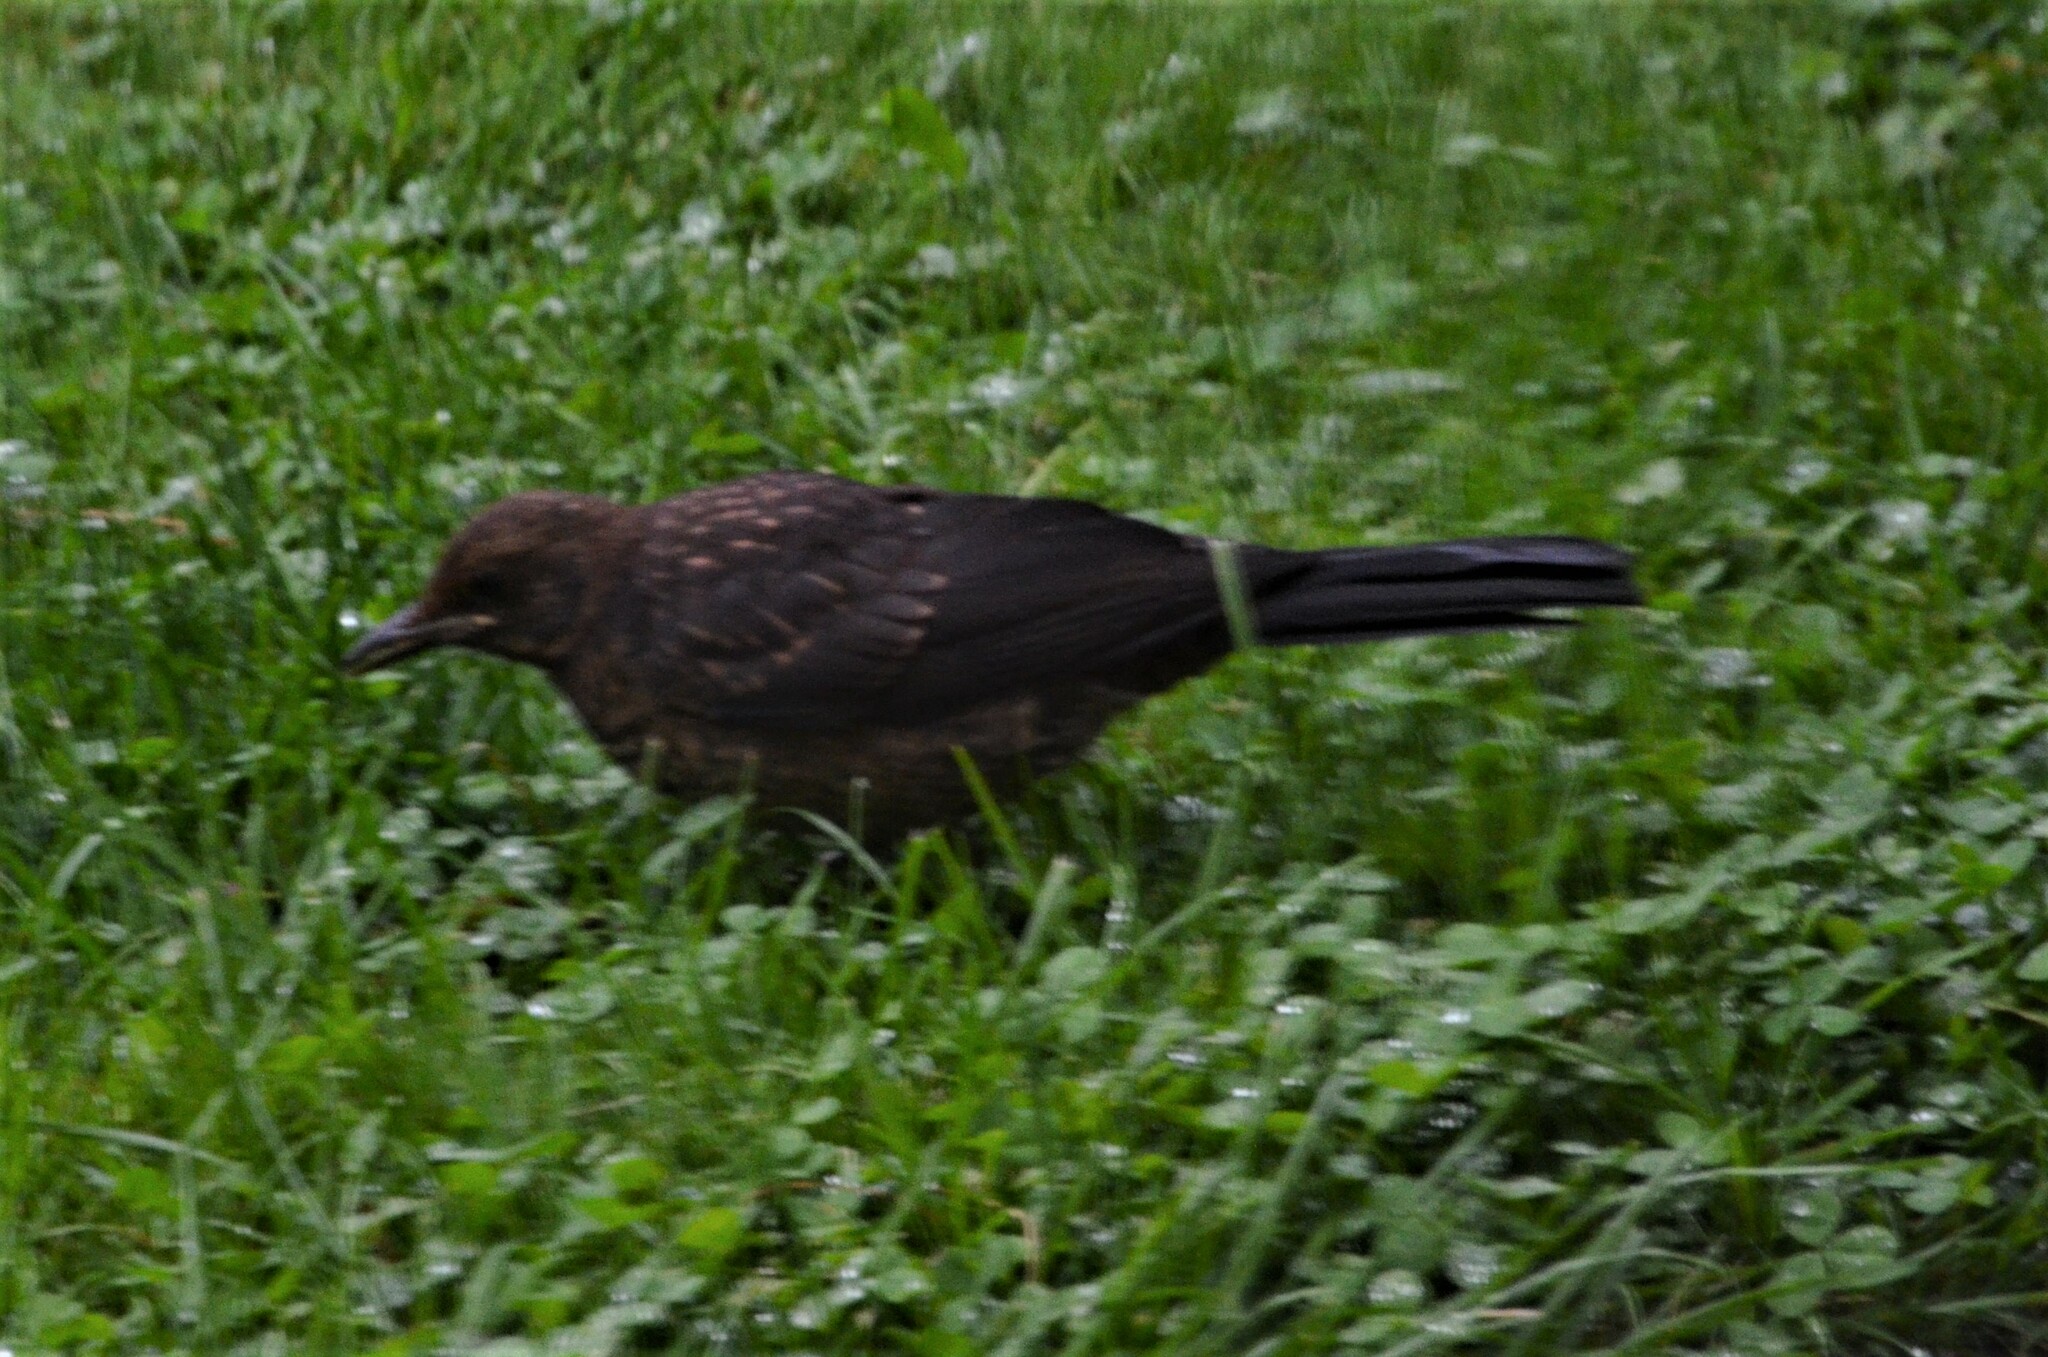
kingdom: Animalia
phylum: Chordata
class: Aves
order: Passeriformes
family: Turdidae
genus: Turdus
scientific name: Turdus merula
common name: Common blackbird
